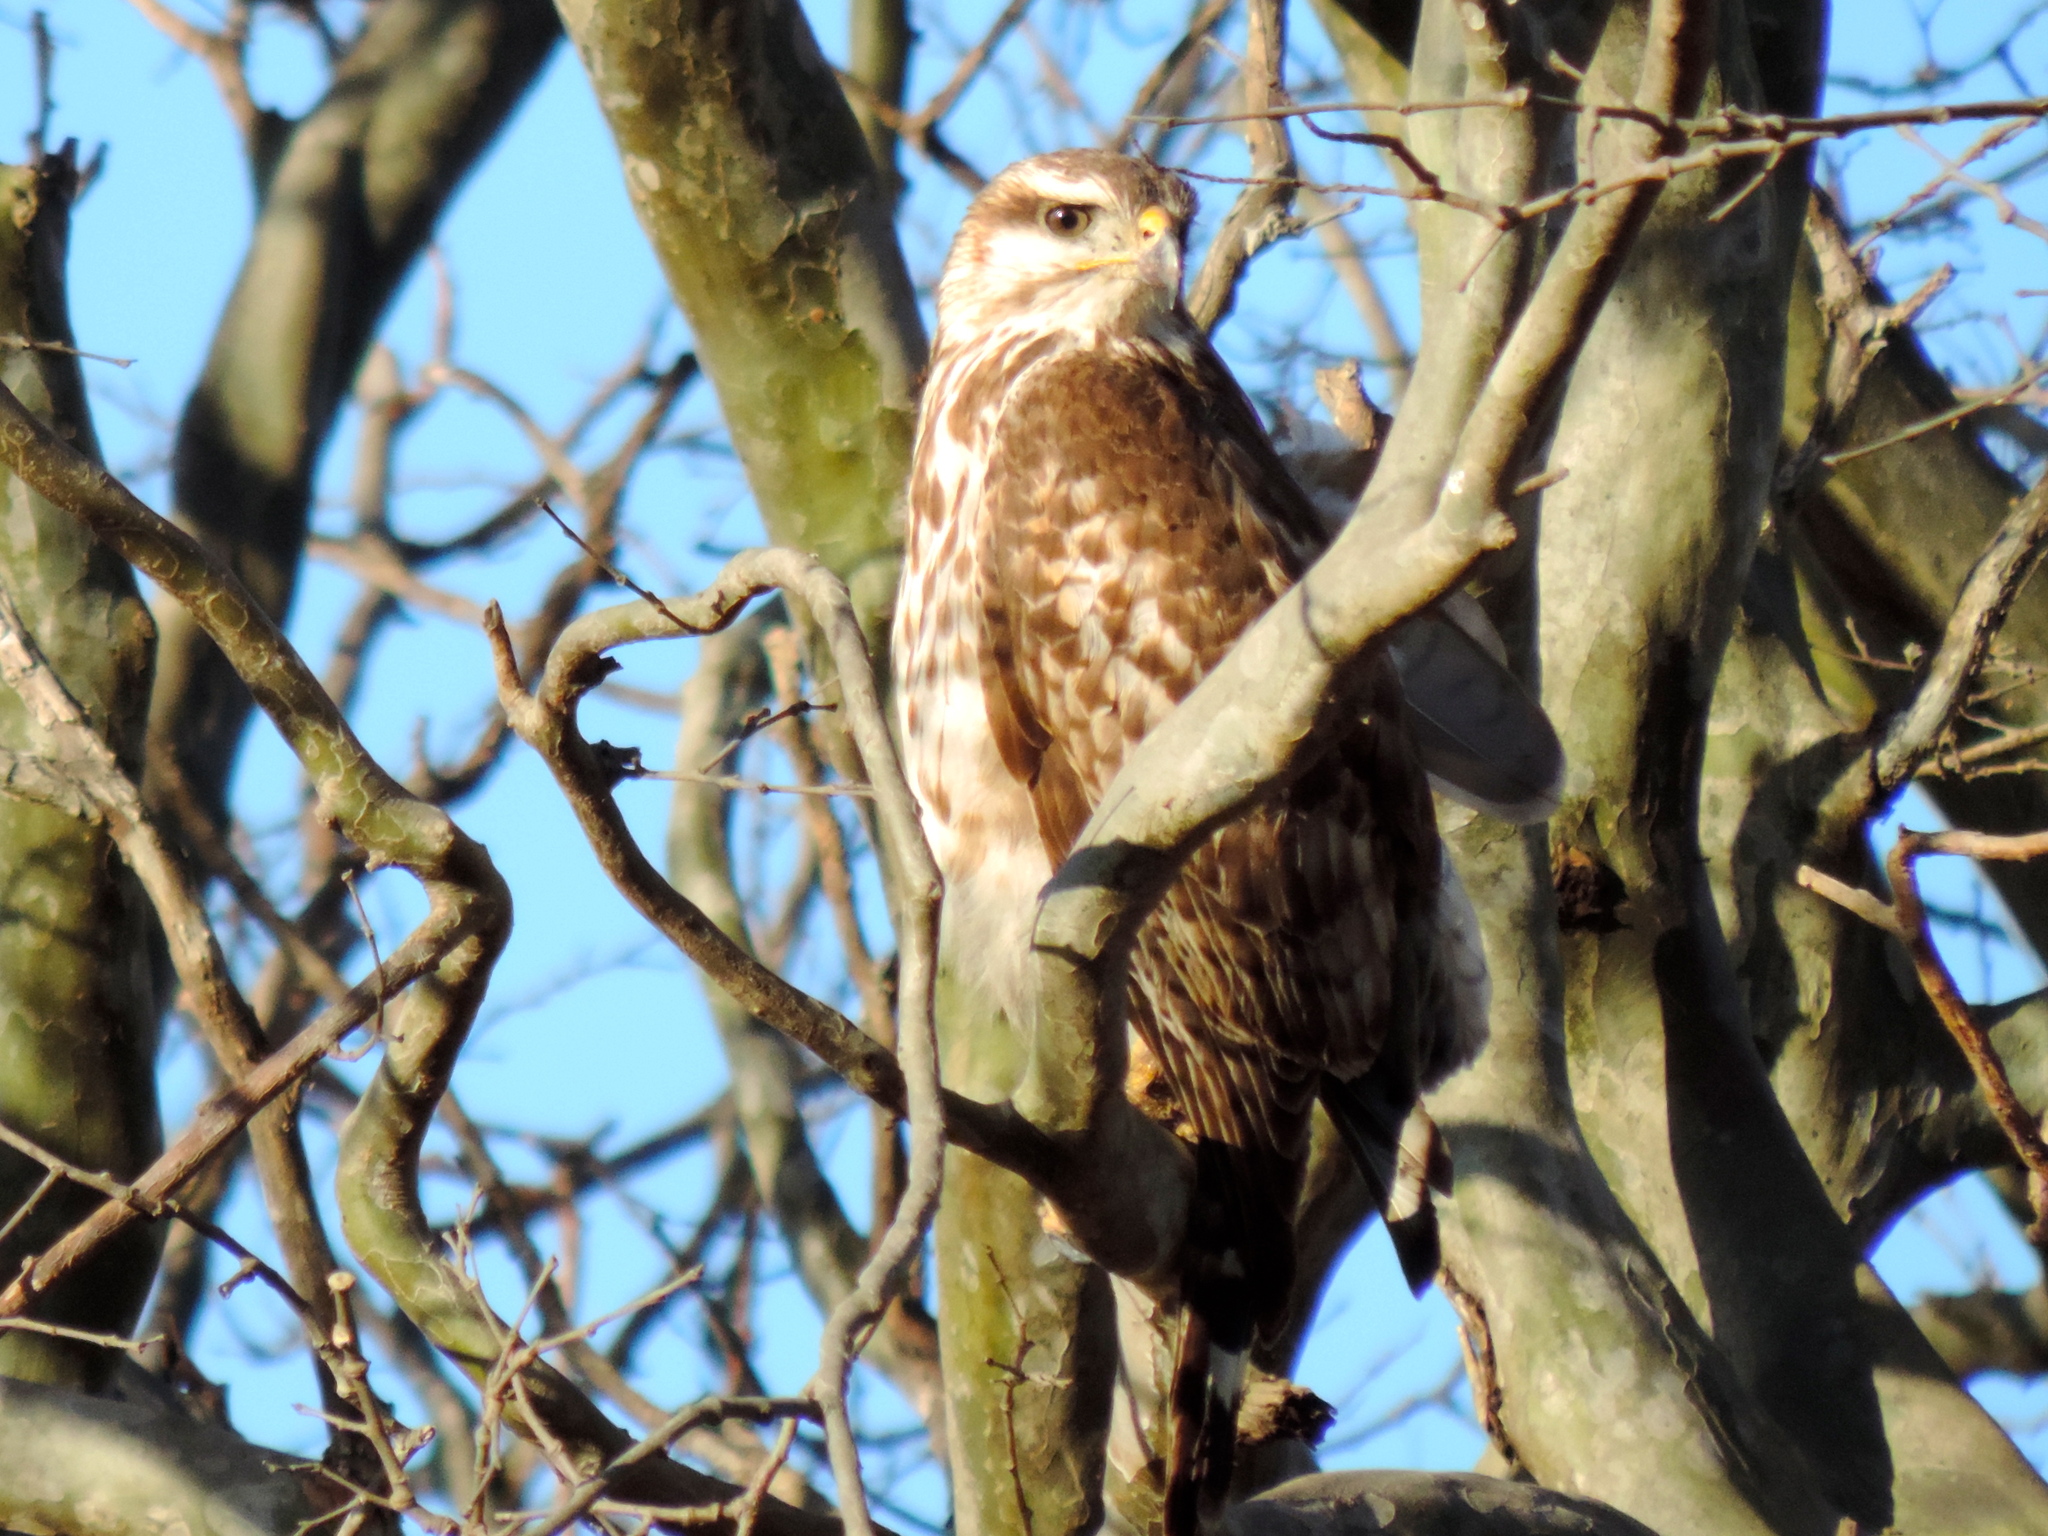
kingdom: Animalia
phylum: Chordata
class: Aves
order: Accipitriformes
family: Accipitridae
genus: Buteo
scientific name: Buteo nitidus
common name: Grey-lined hawk
